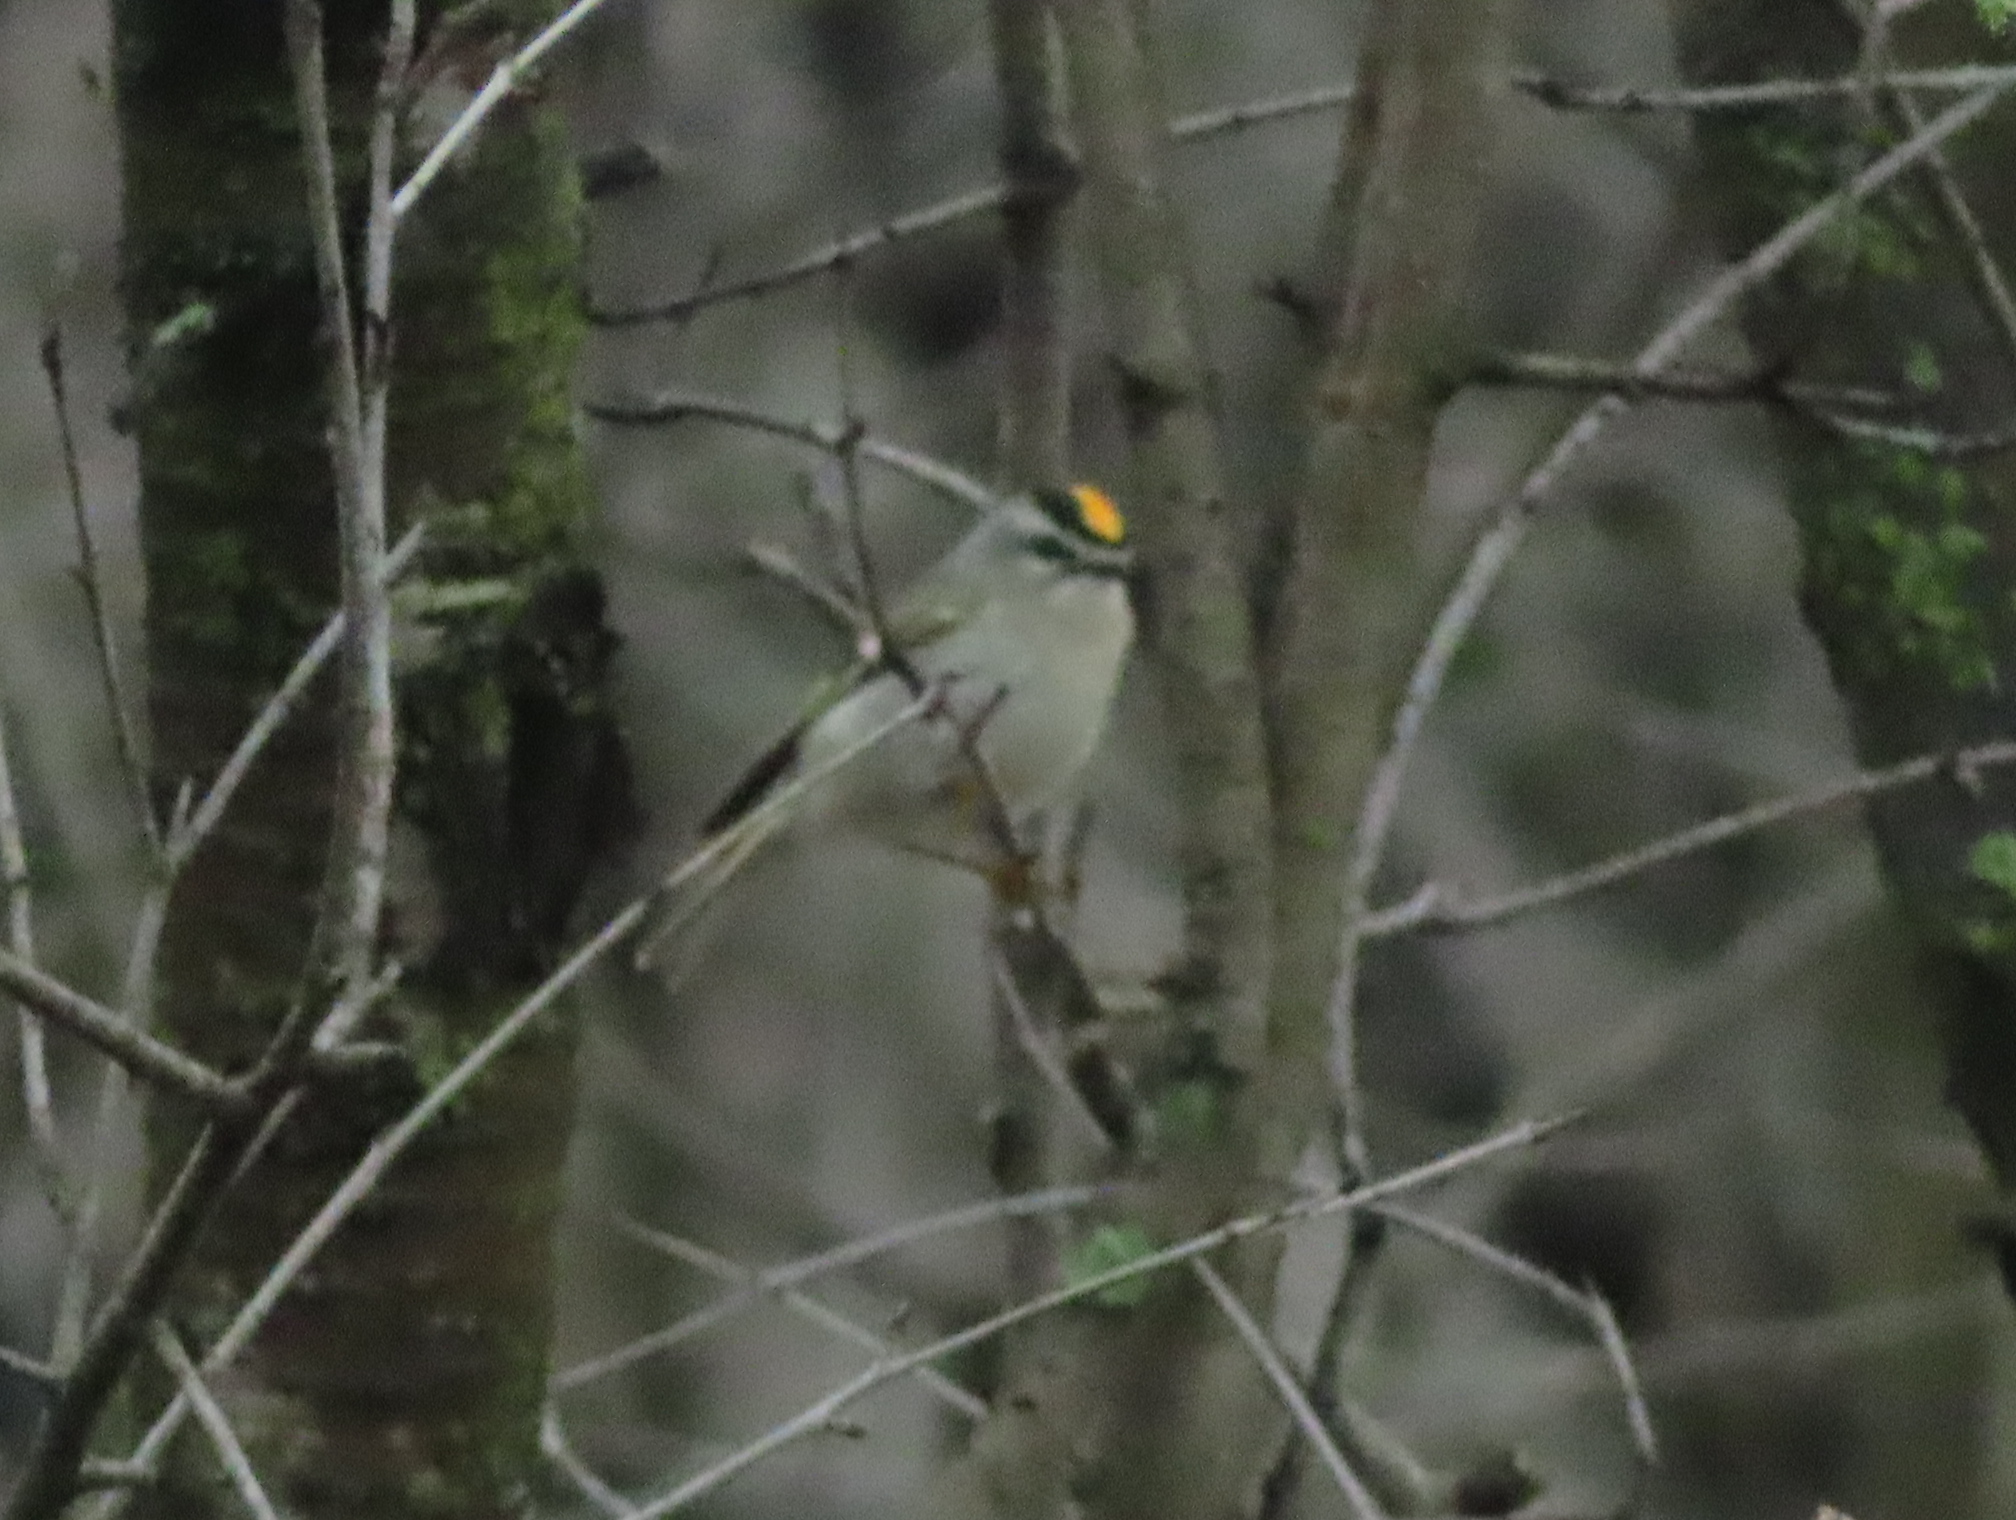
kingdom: Animalia
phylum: Chordata
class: Aves
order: Passeriformes
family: Regulidae
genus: Regulus
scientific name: Regulus satrapa
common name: Golden-crowned kinglet
